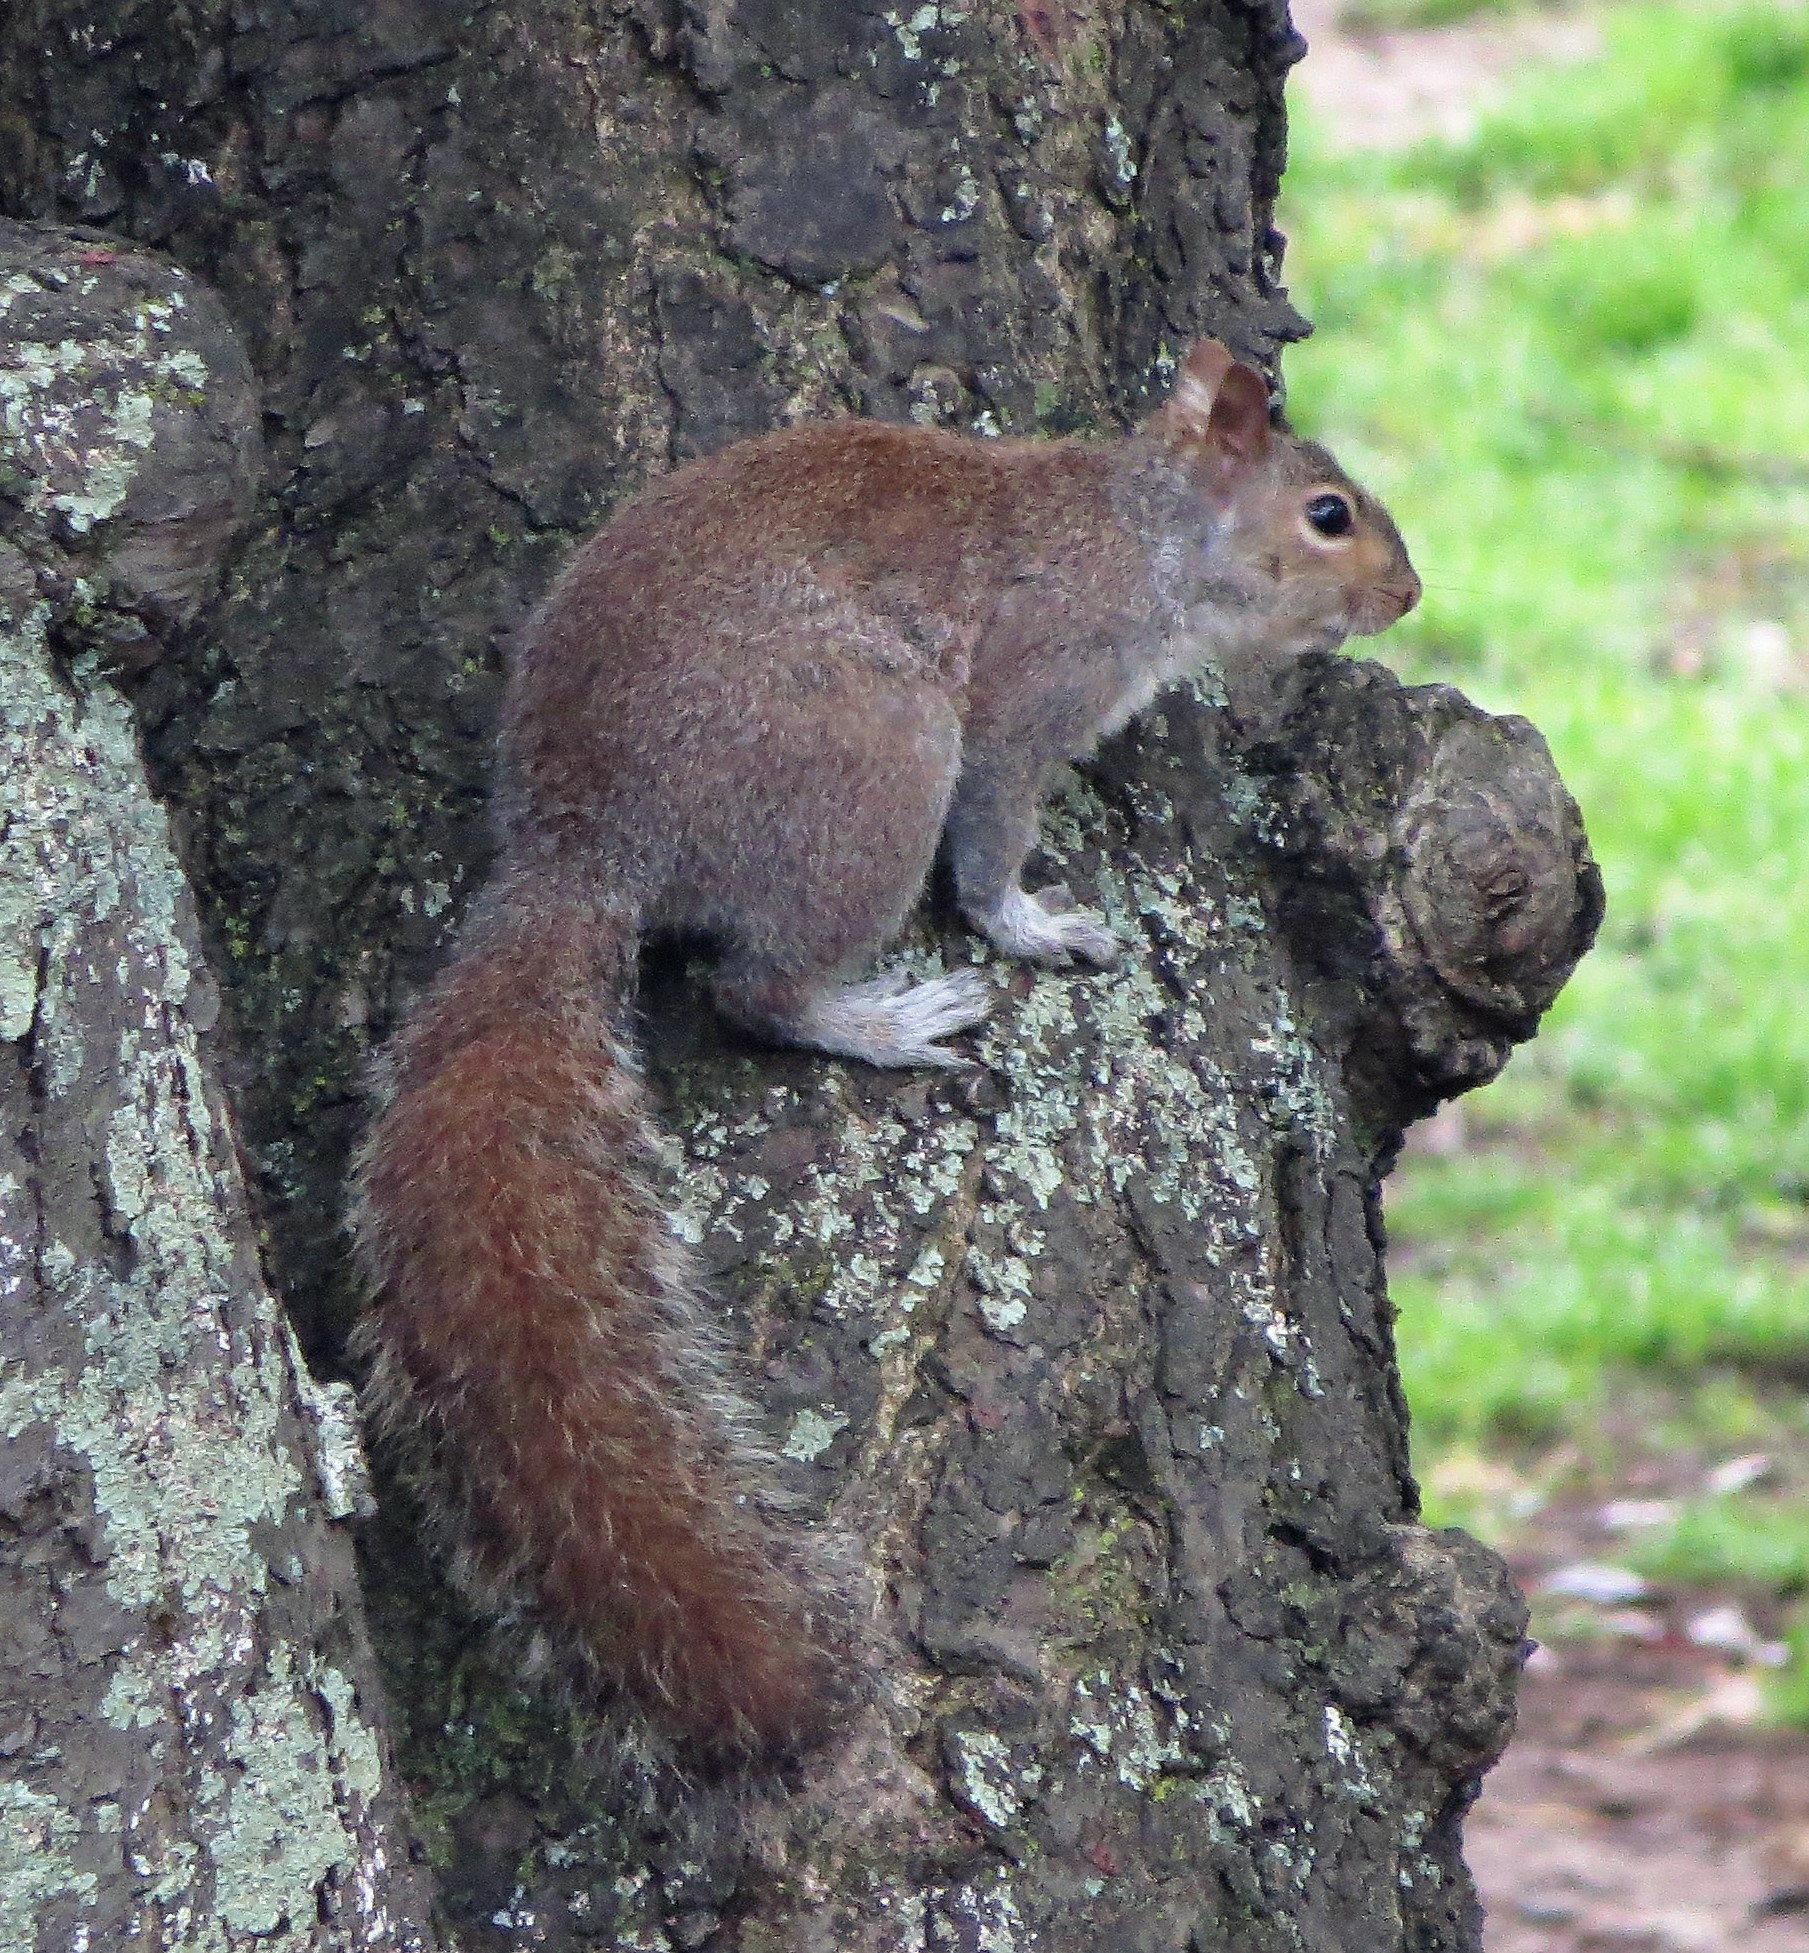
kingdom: Animalia
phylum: Chordata
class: Mammalia
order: Rodentia
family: Sciuridae
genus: Sciurus
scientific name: Sciurus carolinensis
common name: Eastern gray squirrel
